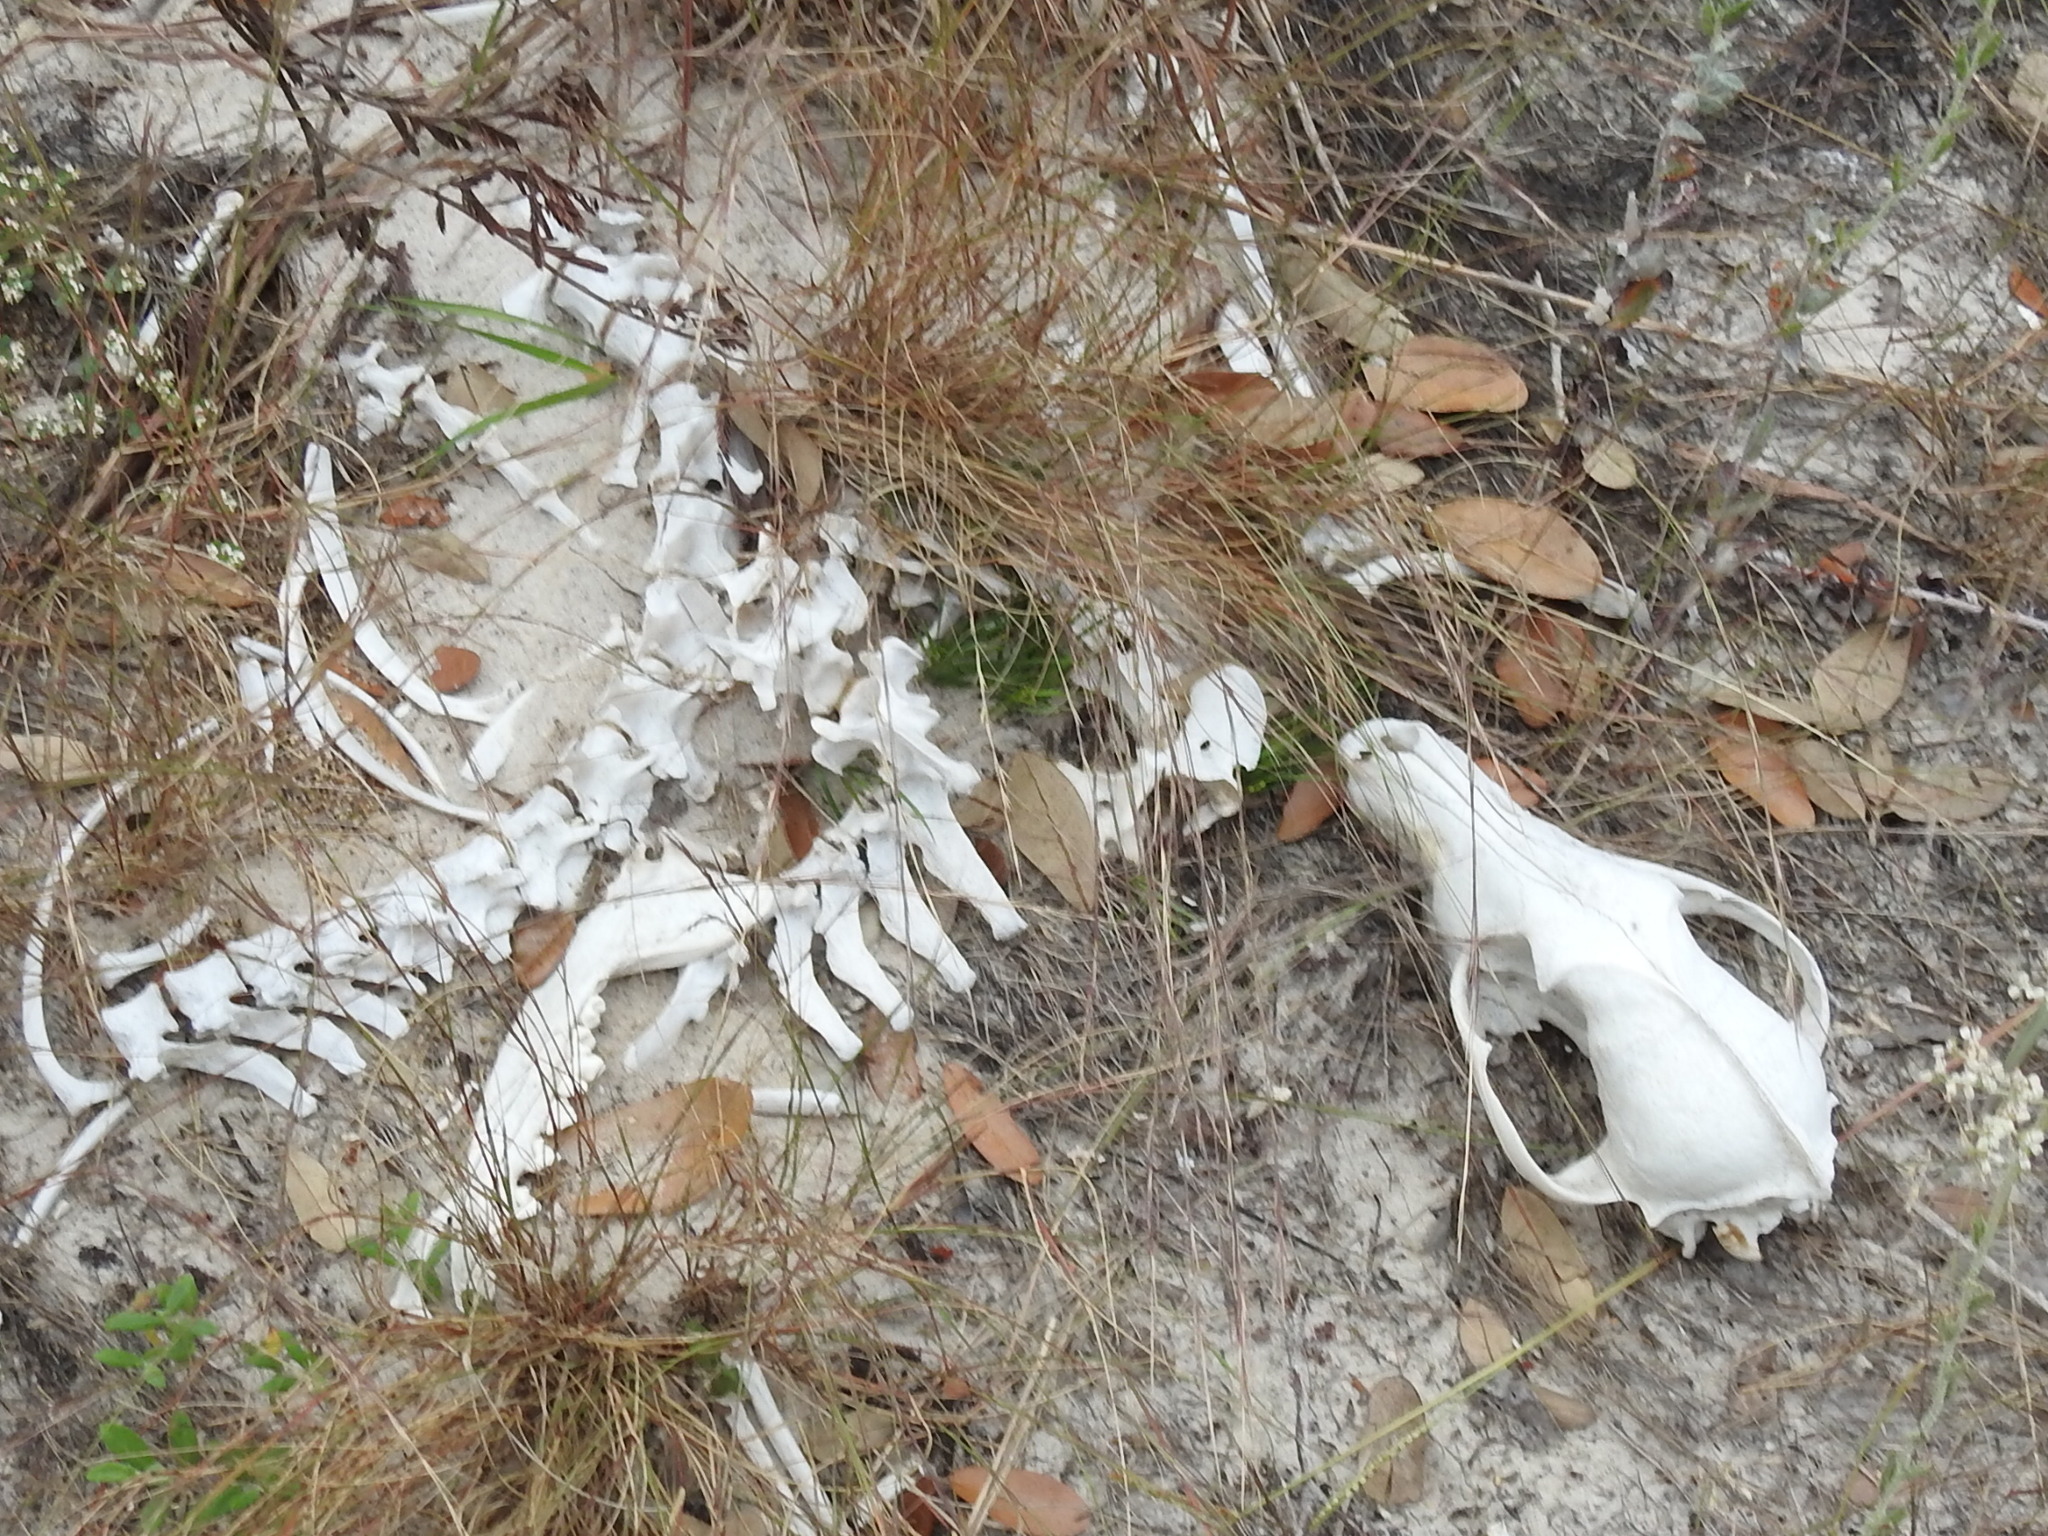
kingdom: Animalia
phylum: Chordata
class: Mammalia
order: Carnivora
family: Canidae
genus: Canis
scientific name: Canis latrans
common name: Coyote
